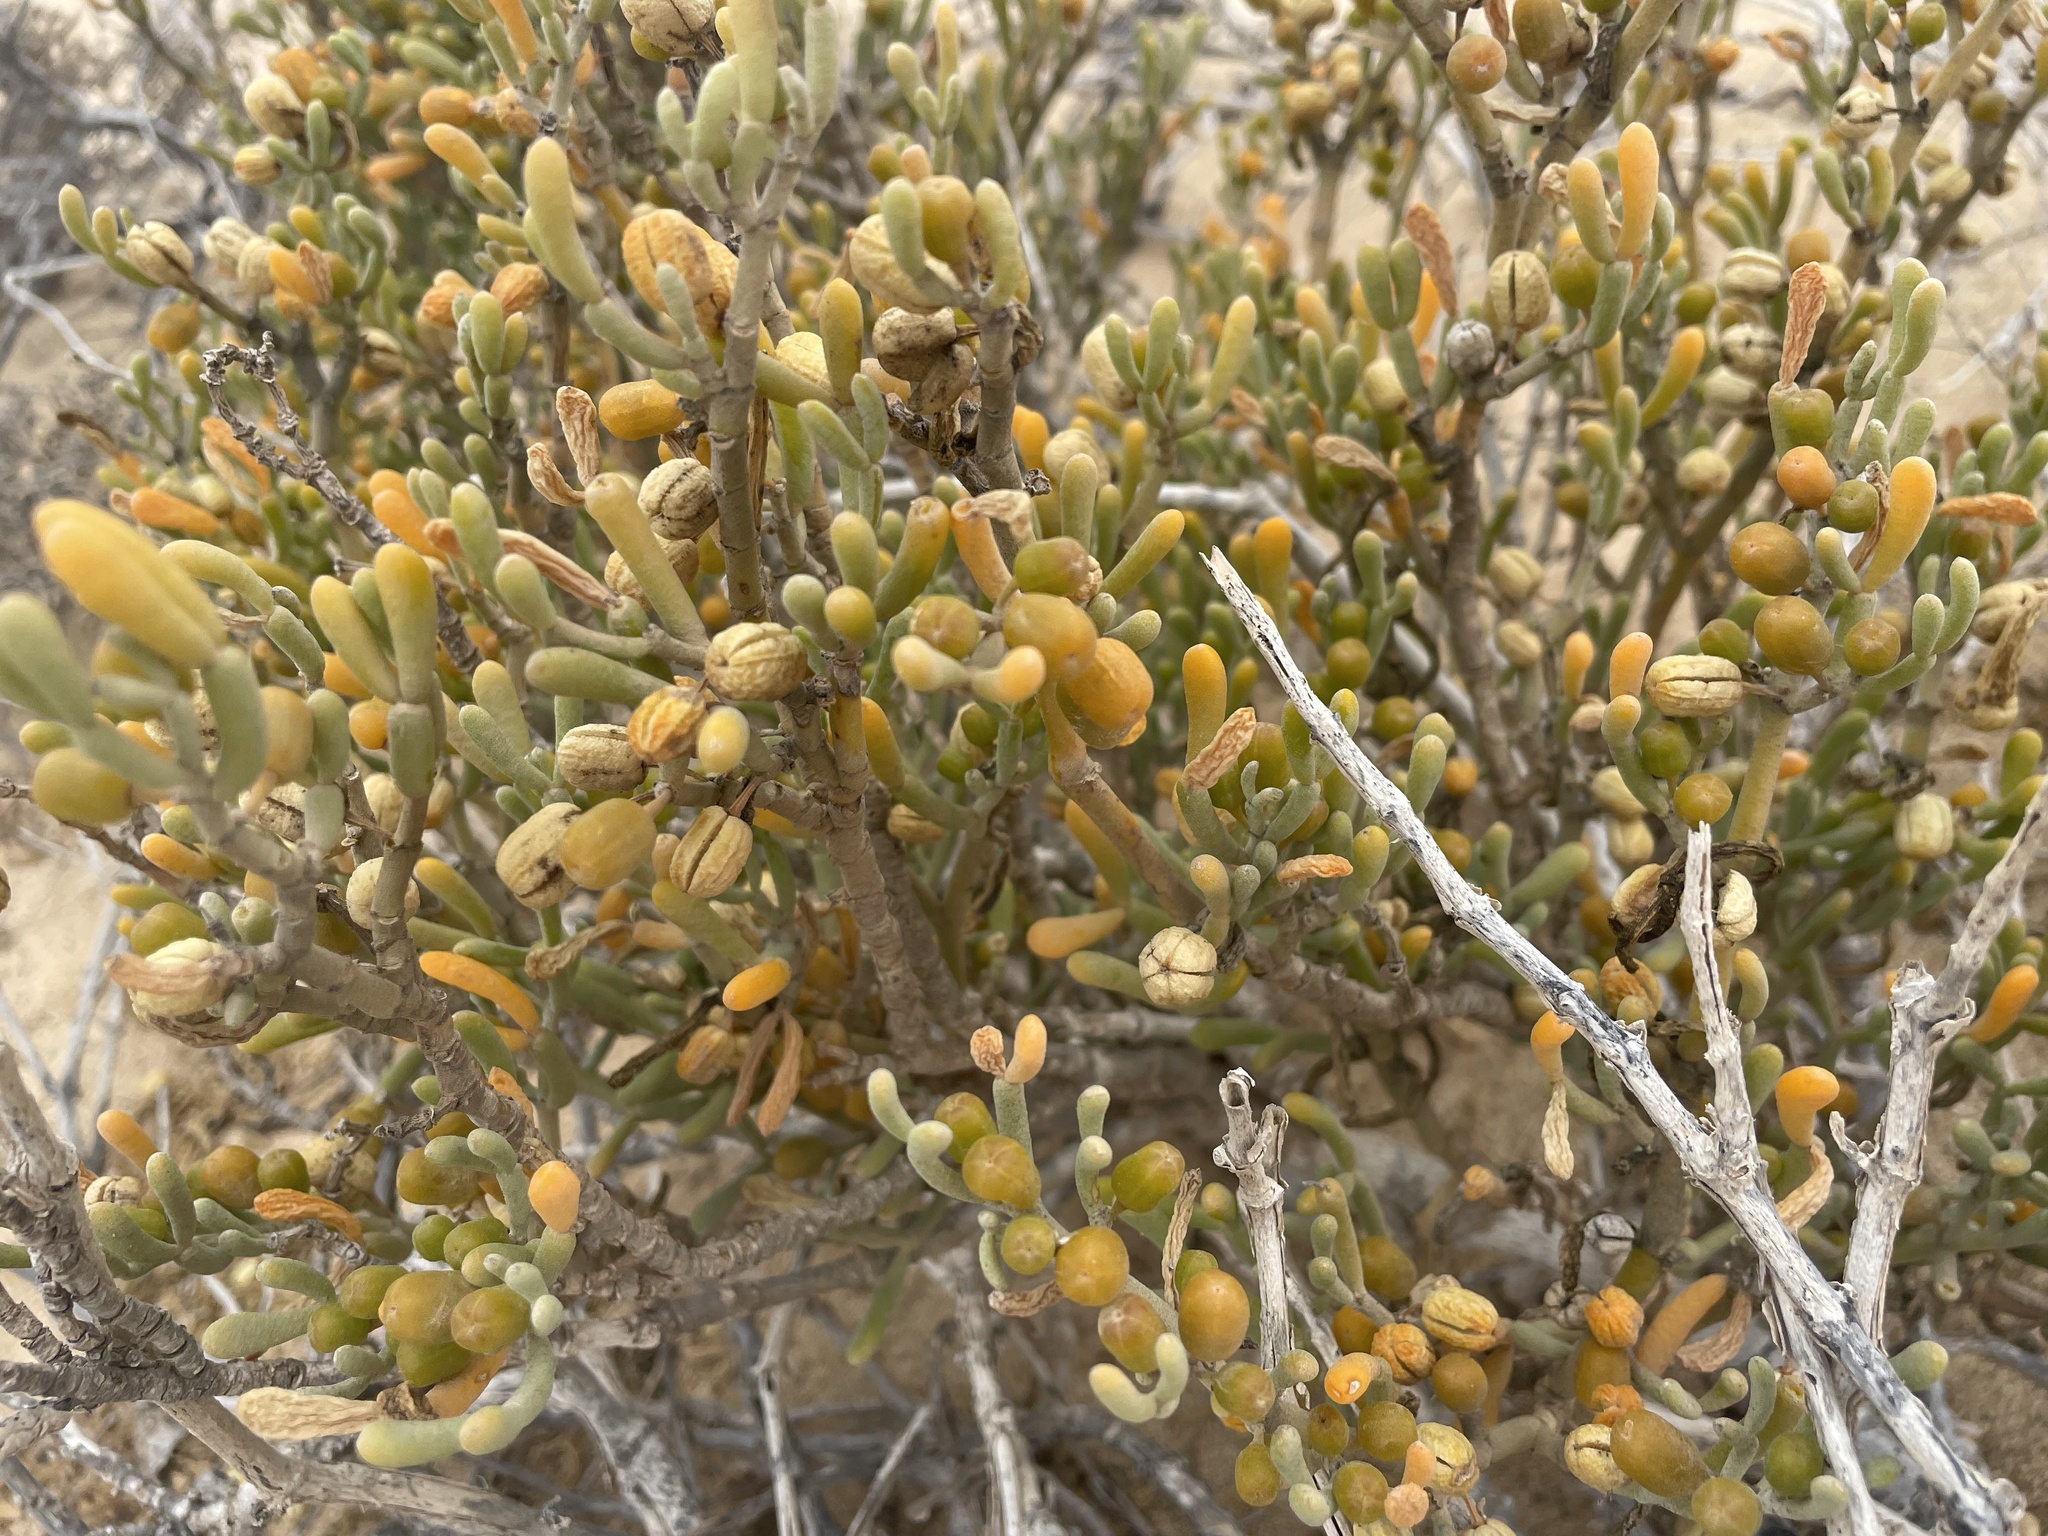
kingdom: Plantae
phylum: Tracheophyta
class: Magnoliopsida
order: Zygophyllales
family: Zygophyllaceae
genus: Tetraena
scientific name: Tetraena fontanesii
